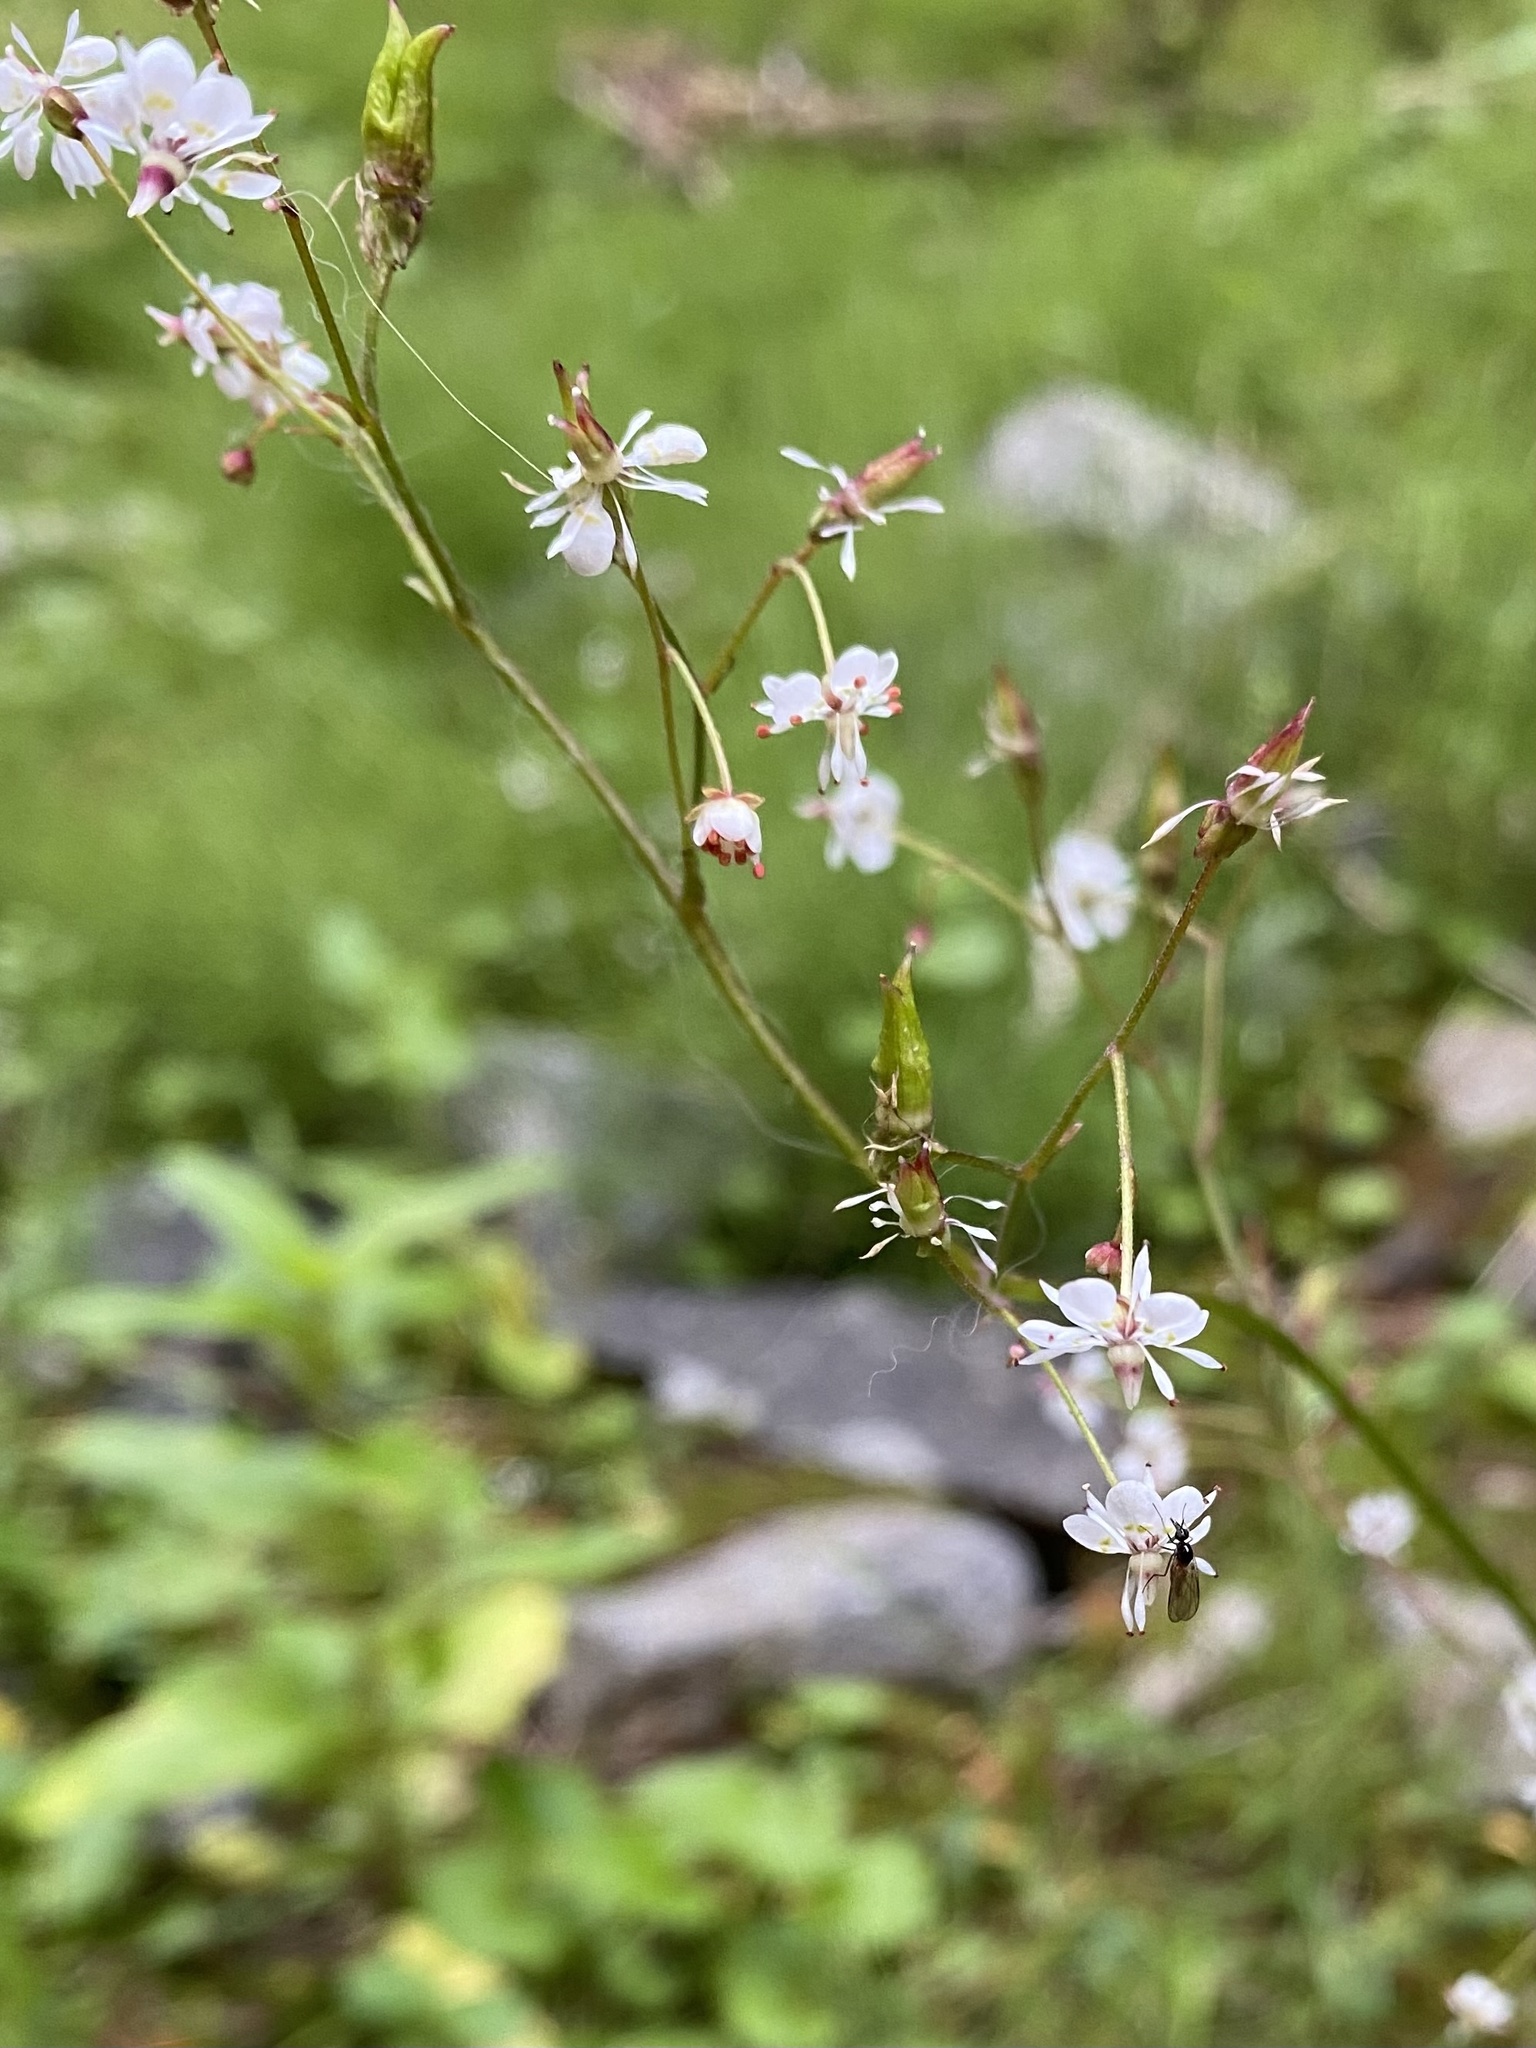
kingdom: Plantae
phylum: Tracheophyta
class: Magnoliopsida
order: Saxifragales
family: Saxifragaceae
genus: Micranthes
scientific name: Micranthes odontoloma
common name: Brook saxifrage
